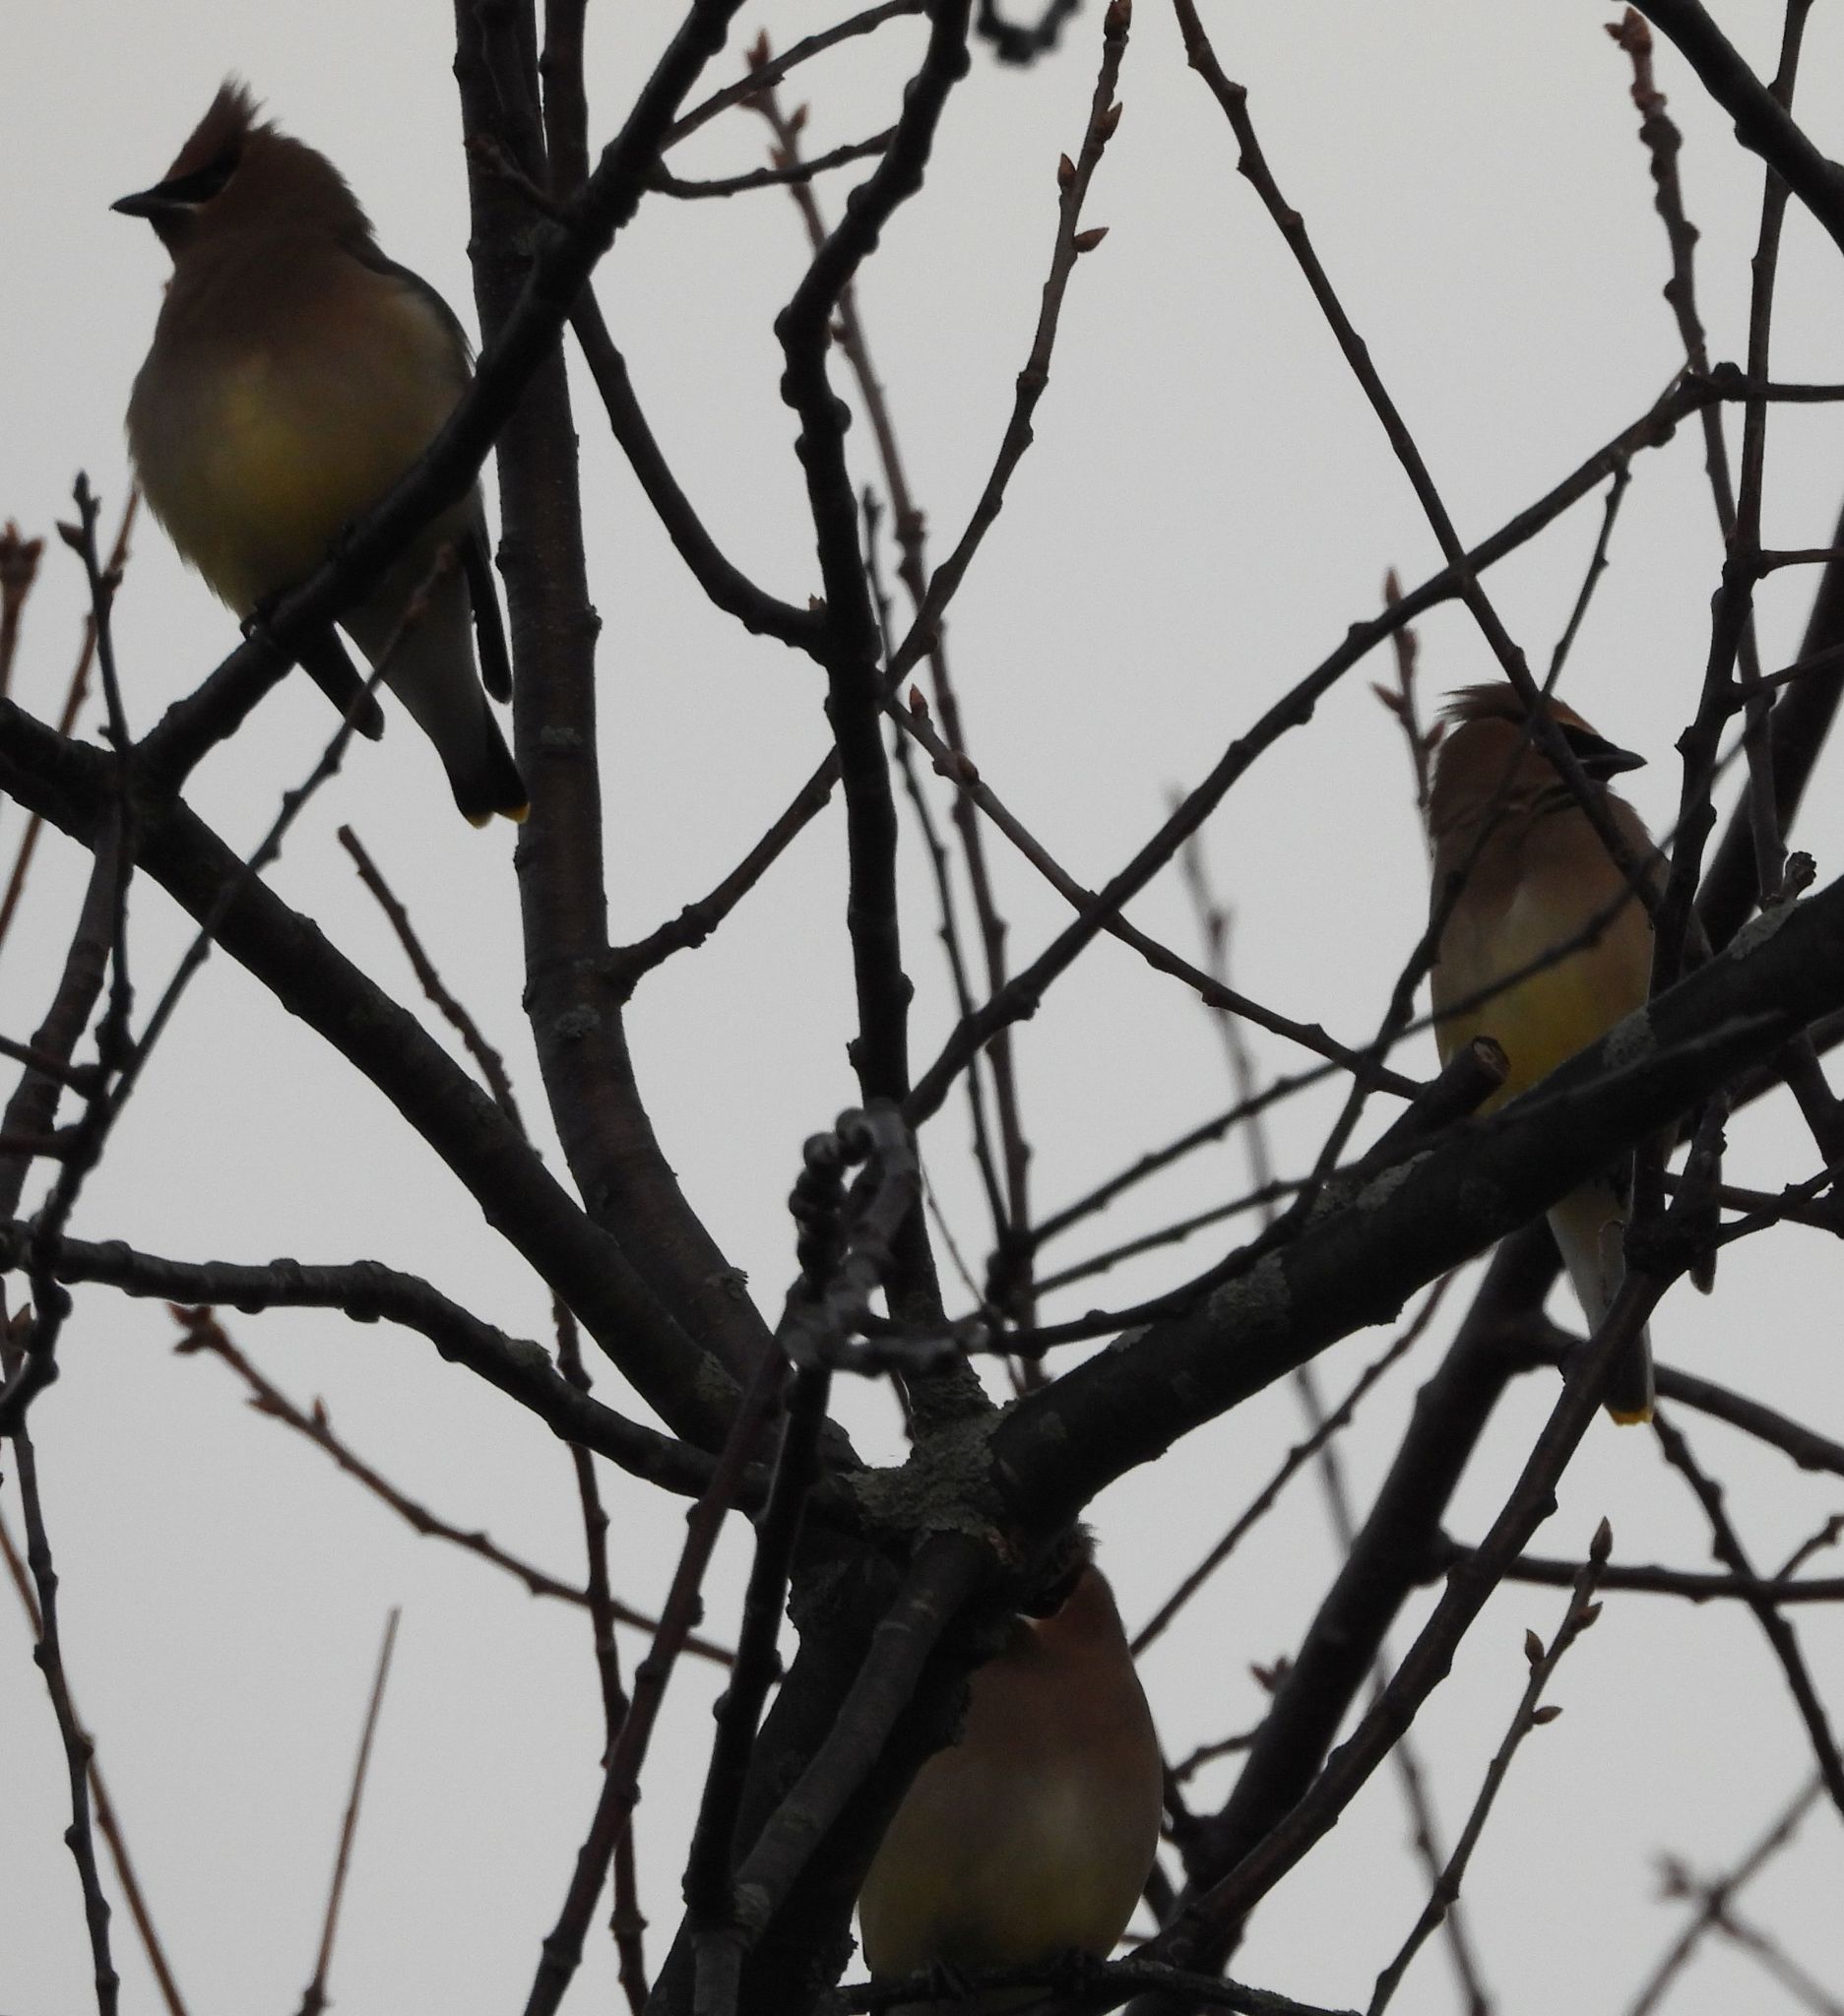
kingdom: Animalia
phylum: Chordata
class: Aves
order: Passeriformes
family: Bombycillidae
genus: Bombycilla
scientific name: Bombycilla cedrorum
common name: Cedar waxwing
